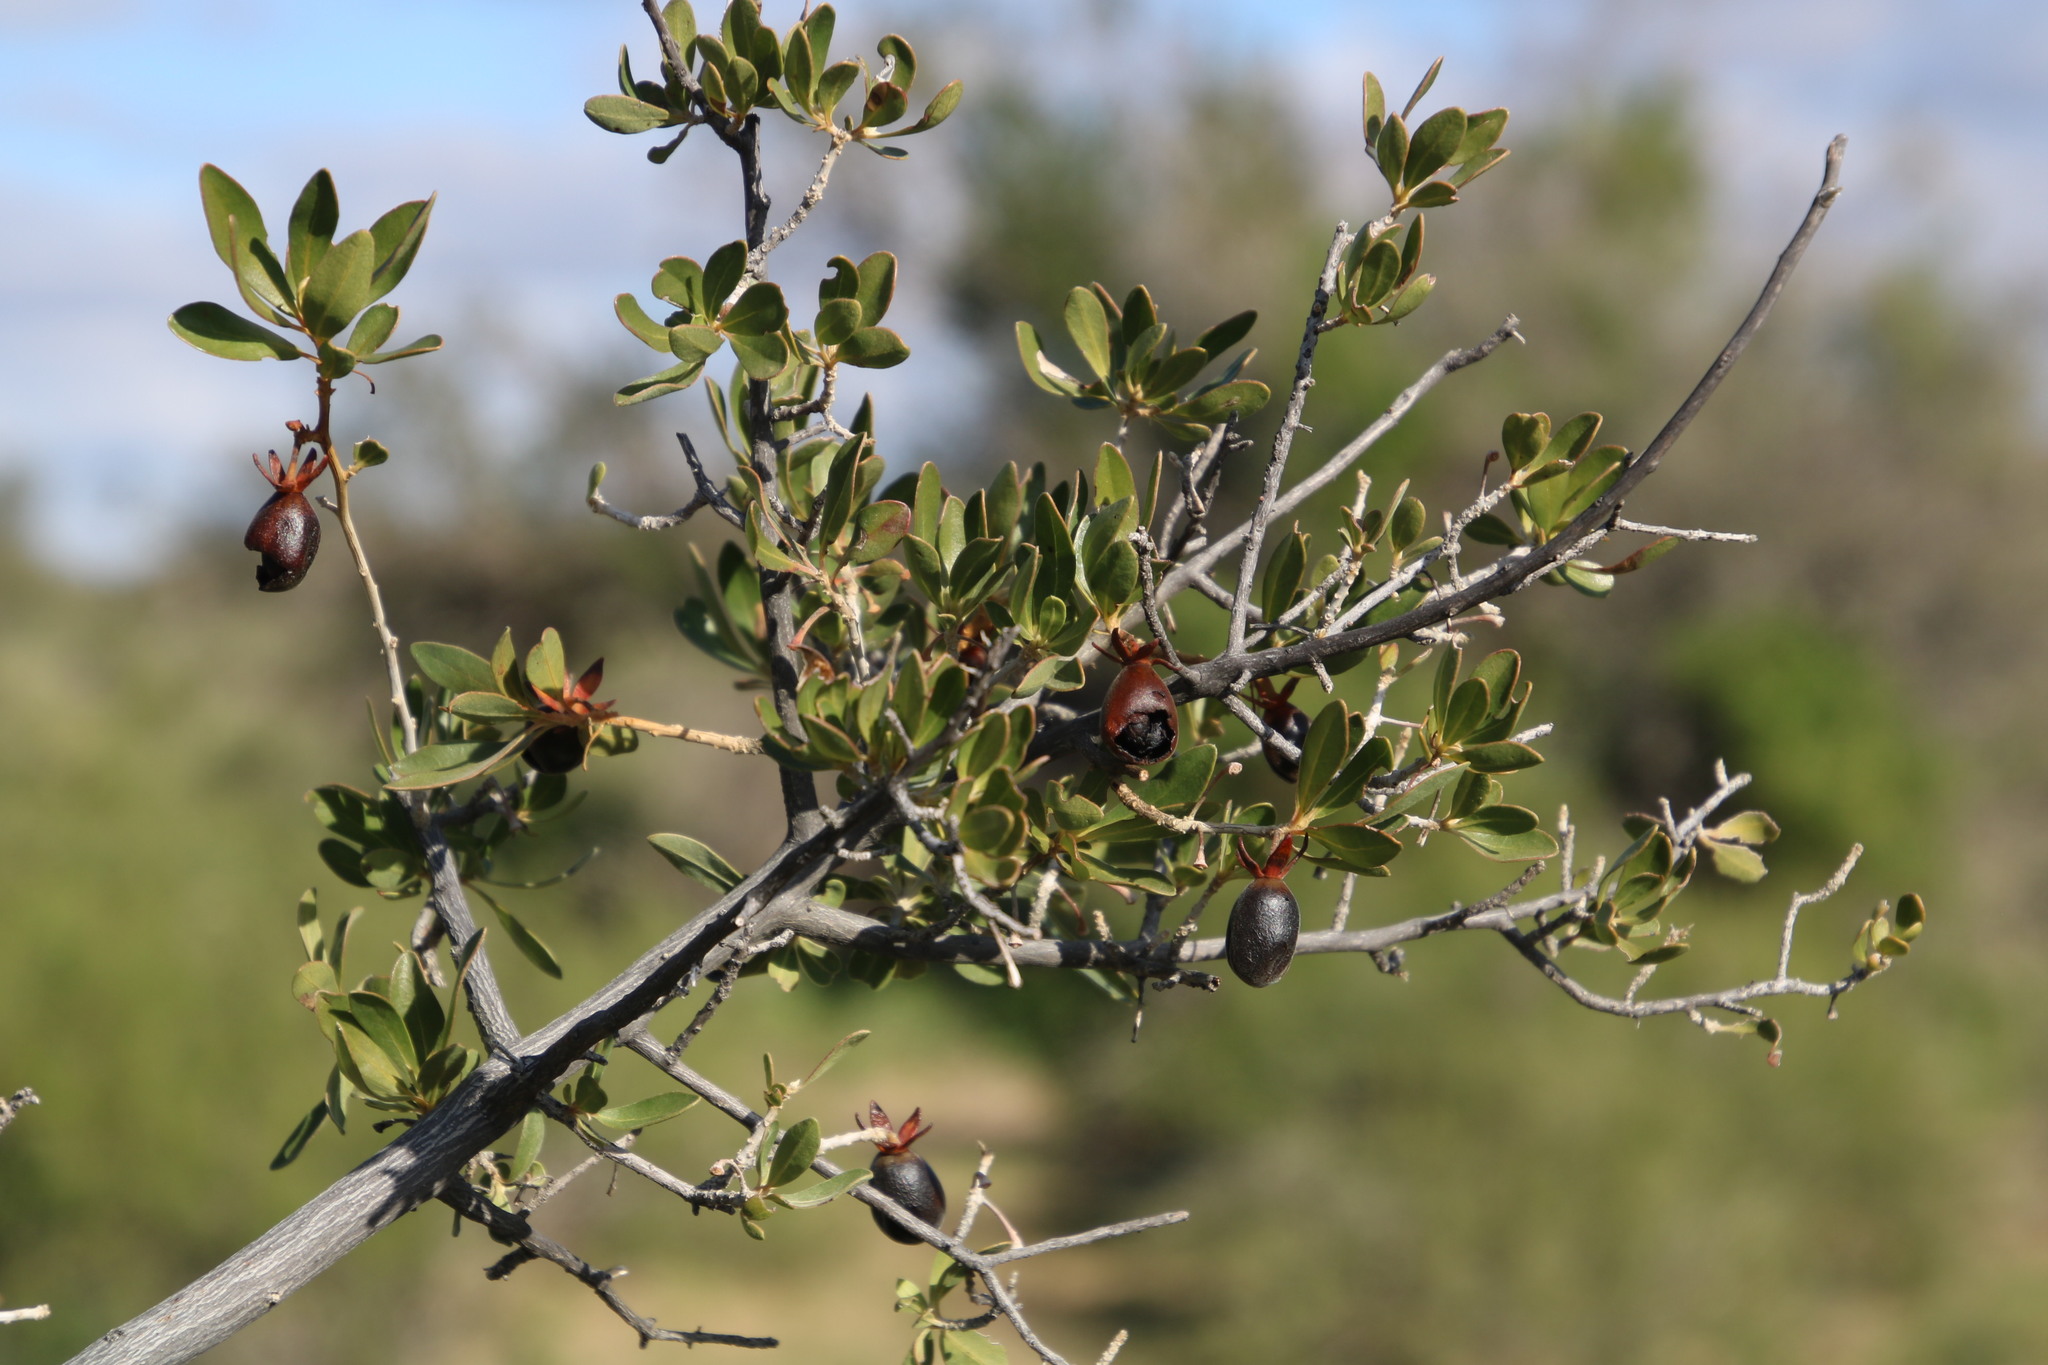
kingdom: Plantae
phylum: Tracheophyta
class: Magnoliopsida
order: Santalales
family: Loranthaceae
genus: Moquiniella
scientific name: Moquiniella rubra
